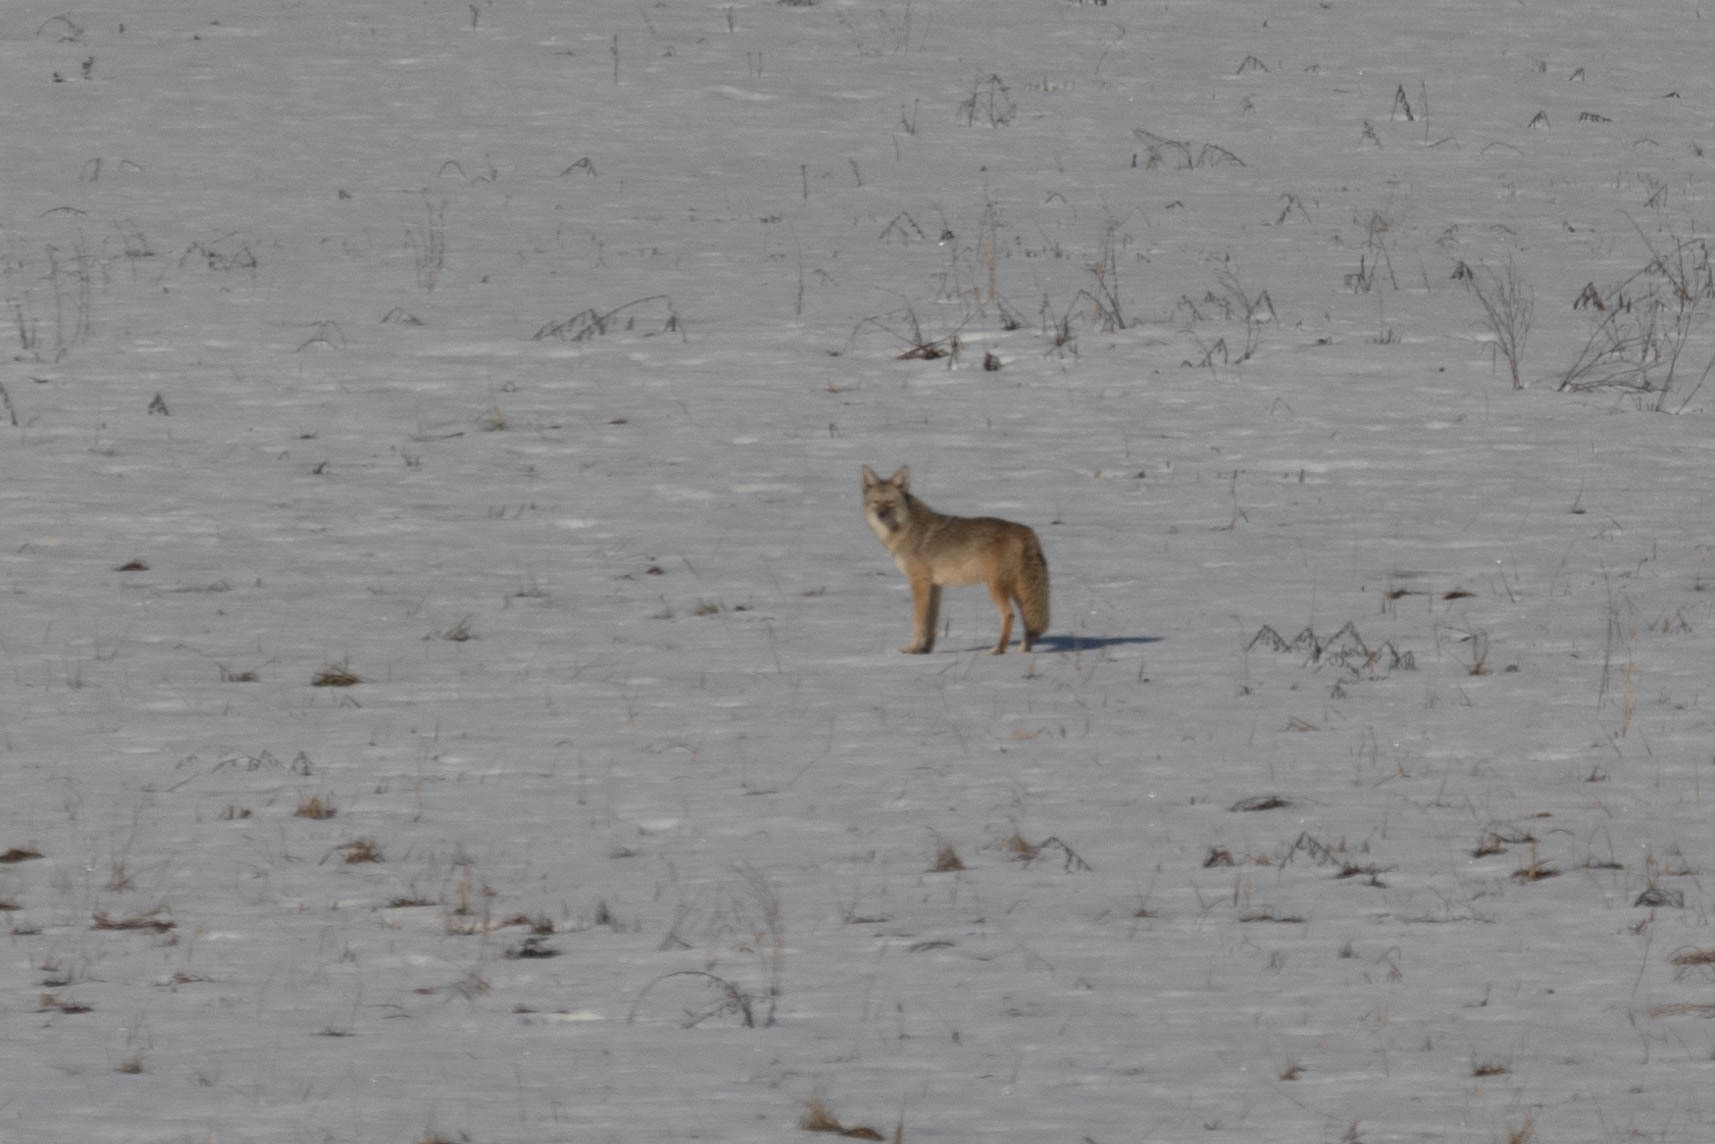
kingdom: Animalia
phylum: Chordata
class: Mammalia
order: Carnivora
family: Canidae
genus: Canis
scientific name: Canis latrans
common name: Coyote
